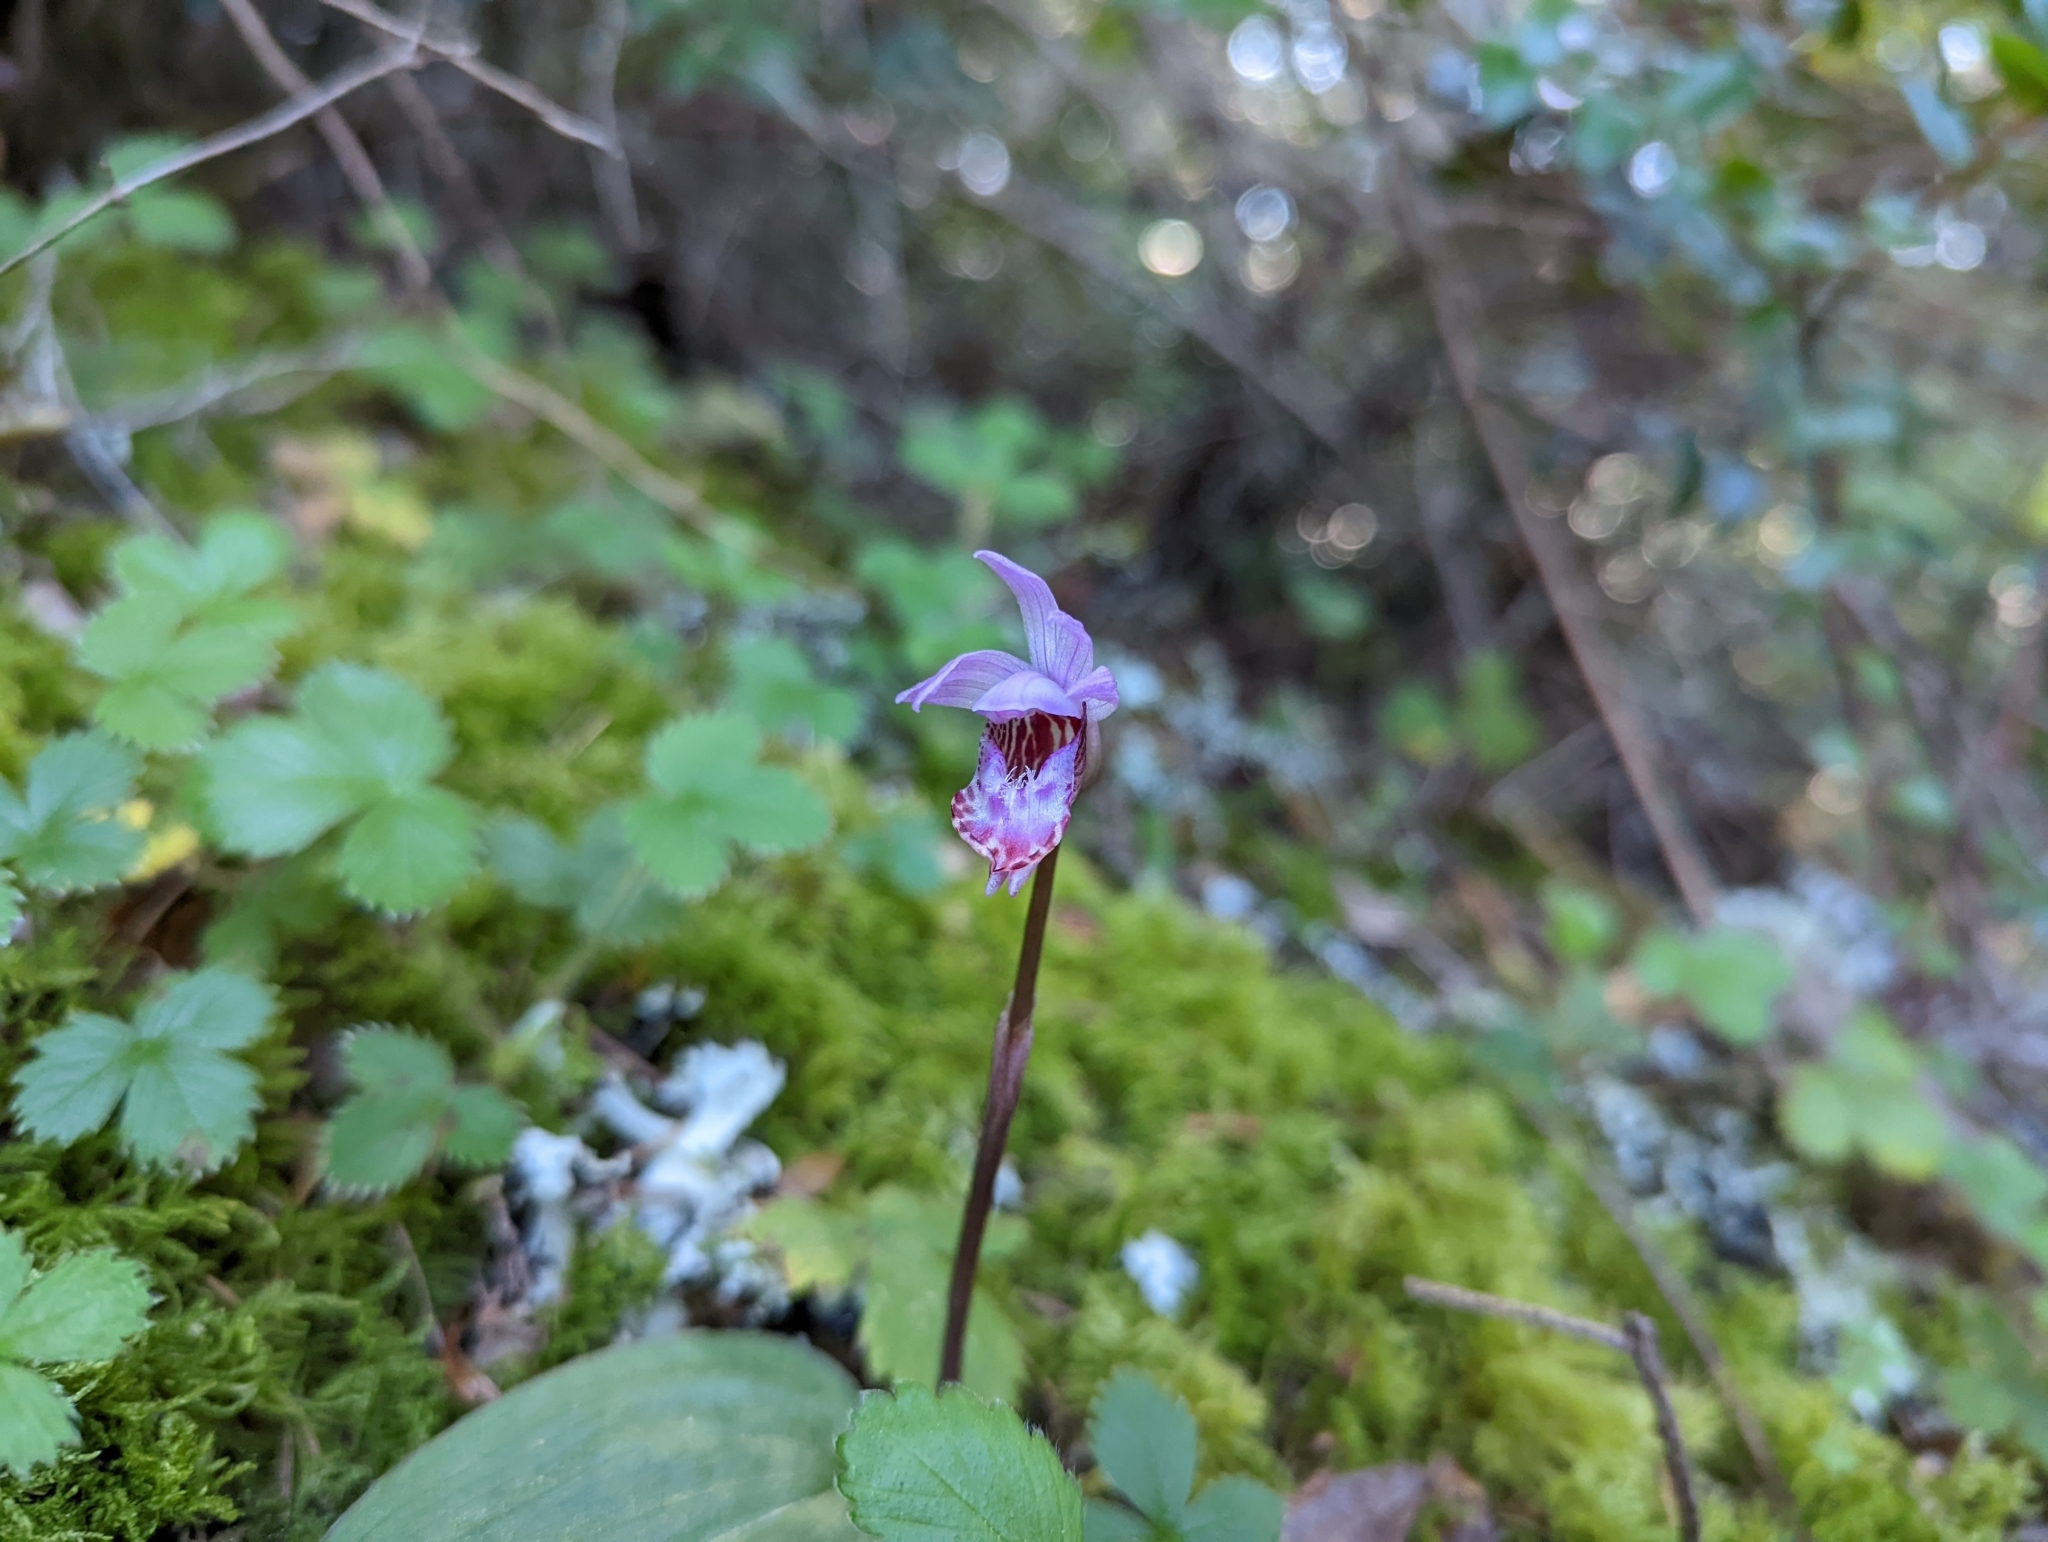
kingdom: Plantae
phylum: Tracheophyta
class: Liliopsida
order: Asparagales
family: Orchidaceae
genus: Calypso
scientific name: Calypso bulbosa
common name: Calypso
